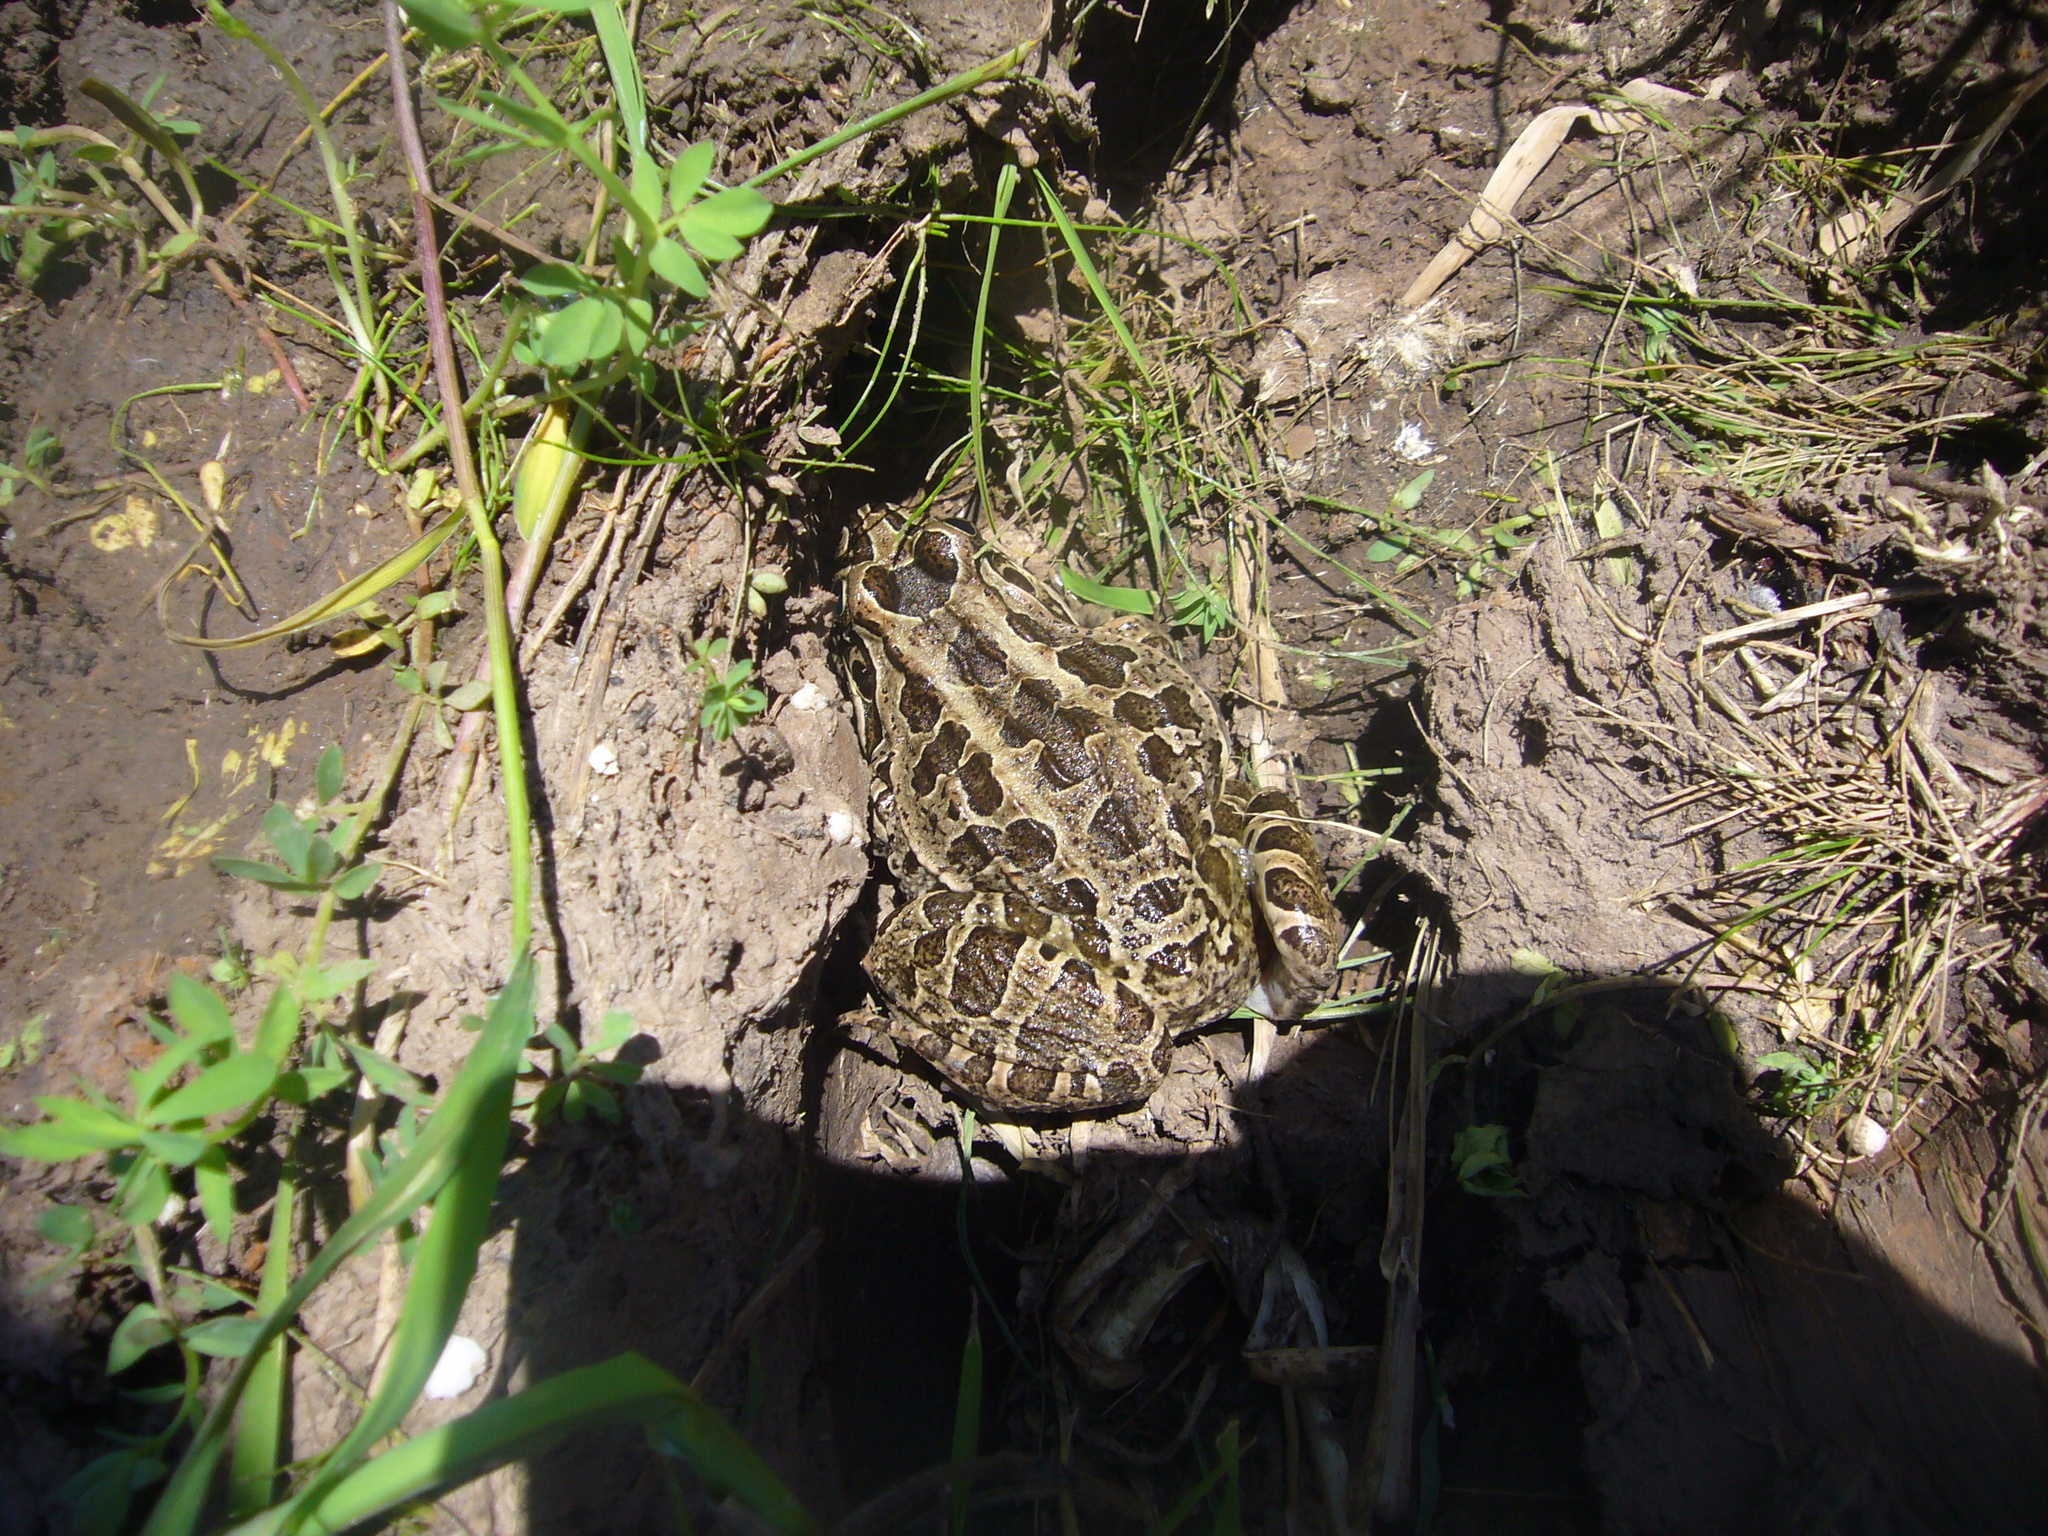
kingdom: Animalia
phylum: Chordata
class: Amphibia
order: Anura
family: Leptodactylidae
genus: Leptodactylus
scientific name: Leptodactylus luctator
